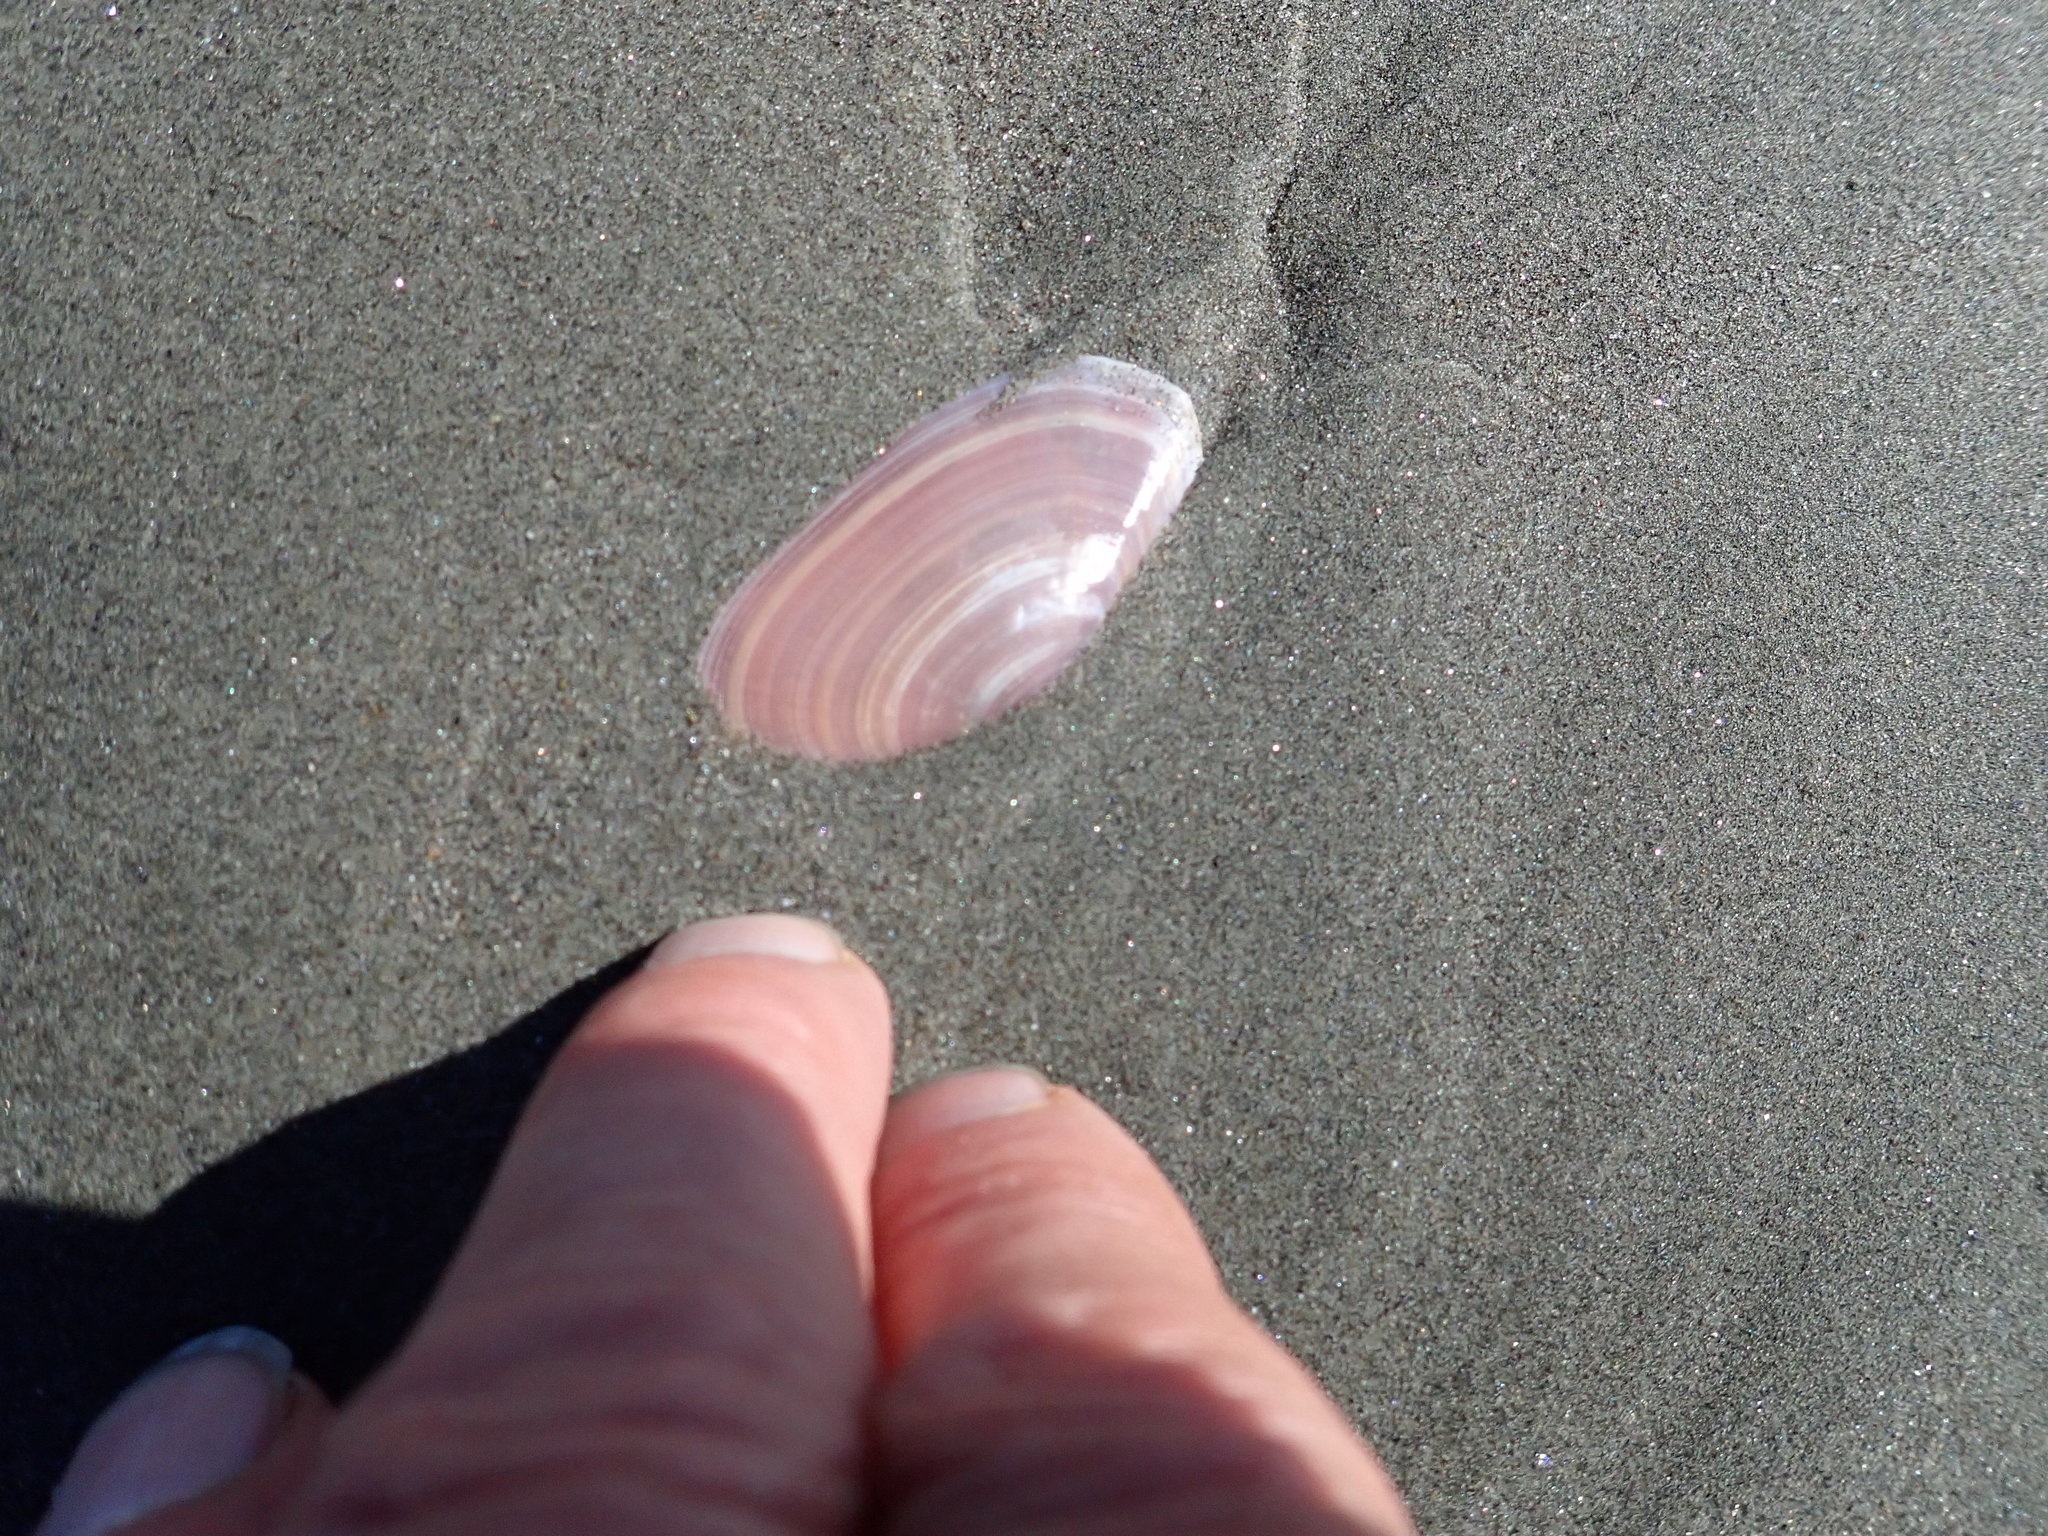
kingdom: Animalia
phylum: Mollusca
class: Bivalvia
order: Cardiida
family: Psammobiidae
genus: Gari
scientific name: Gari lineolata
